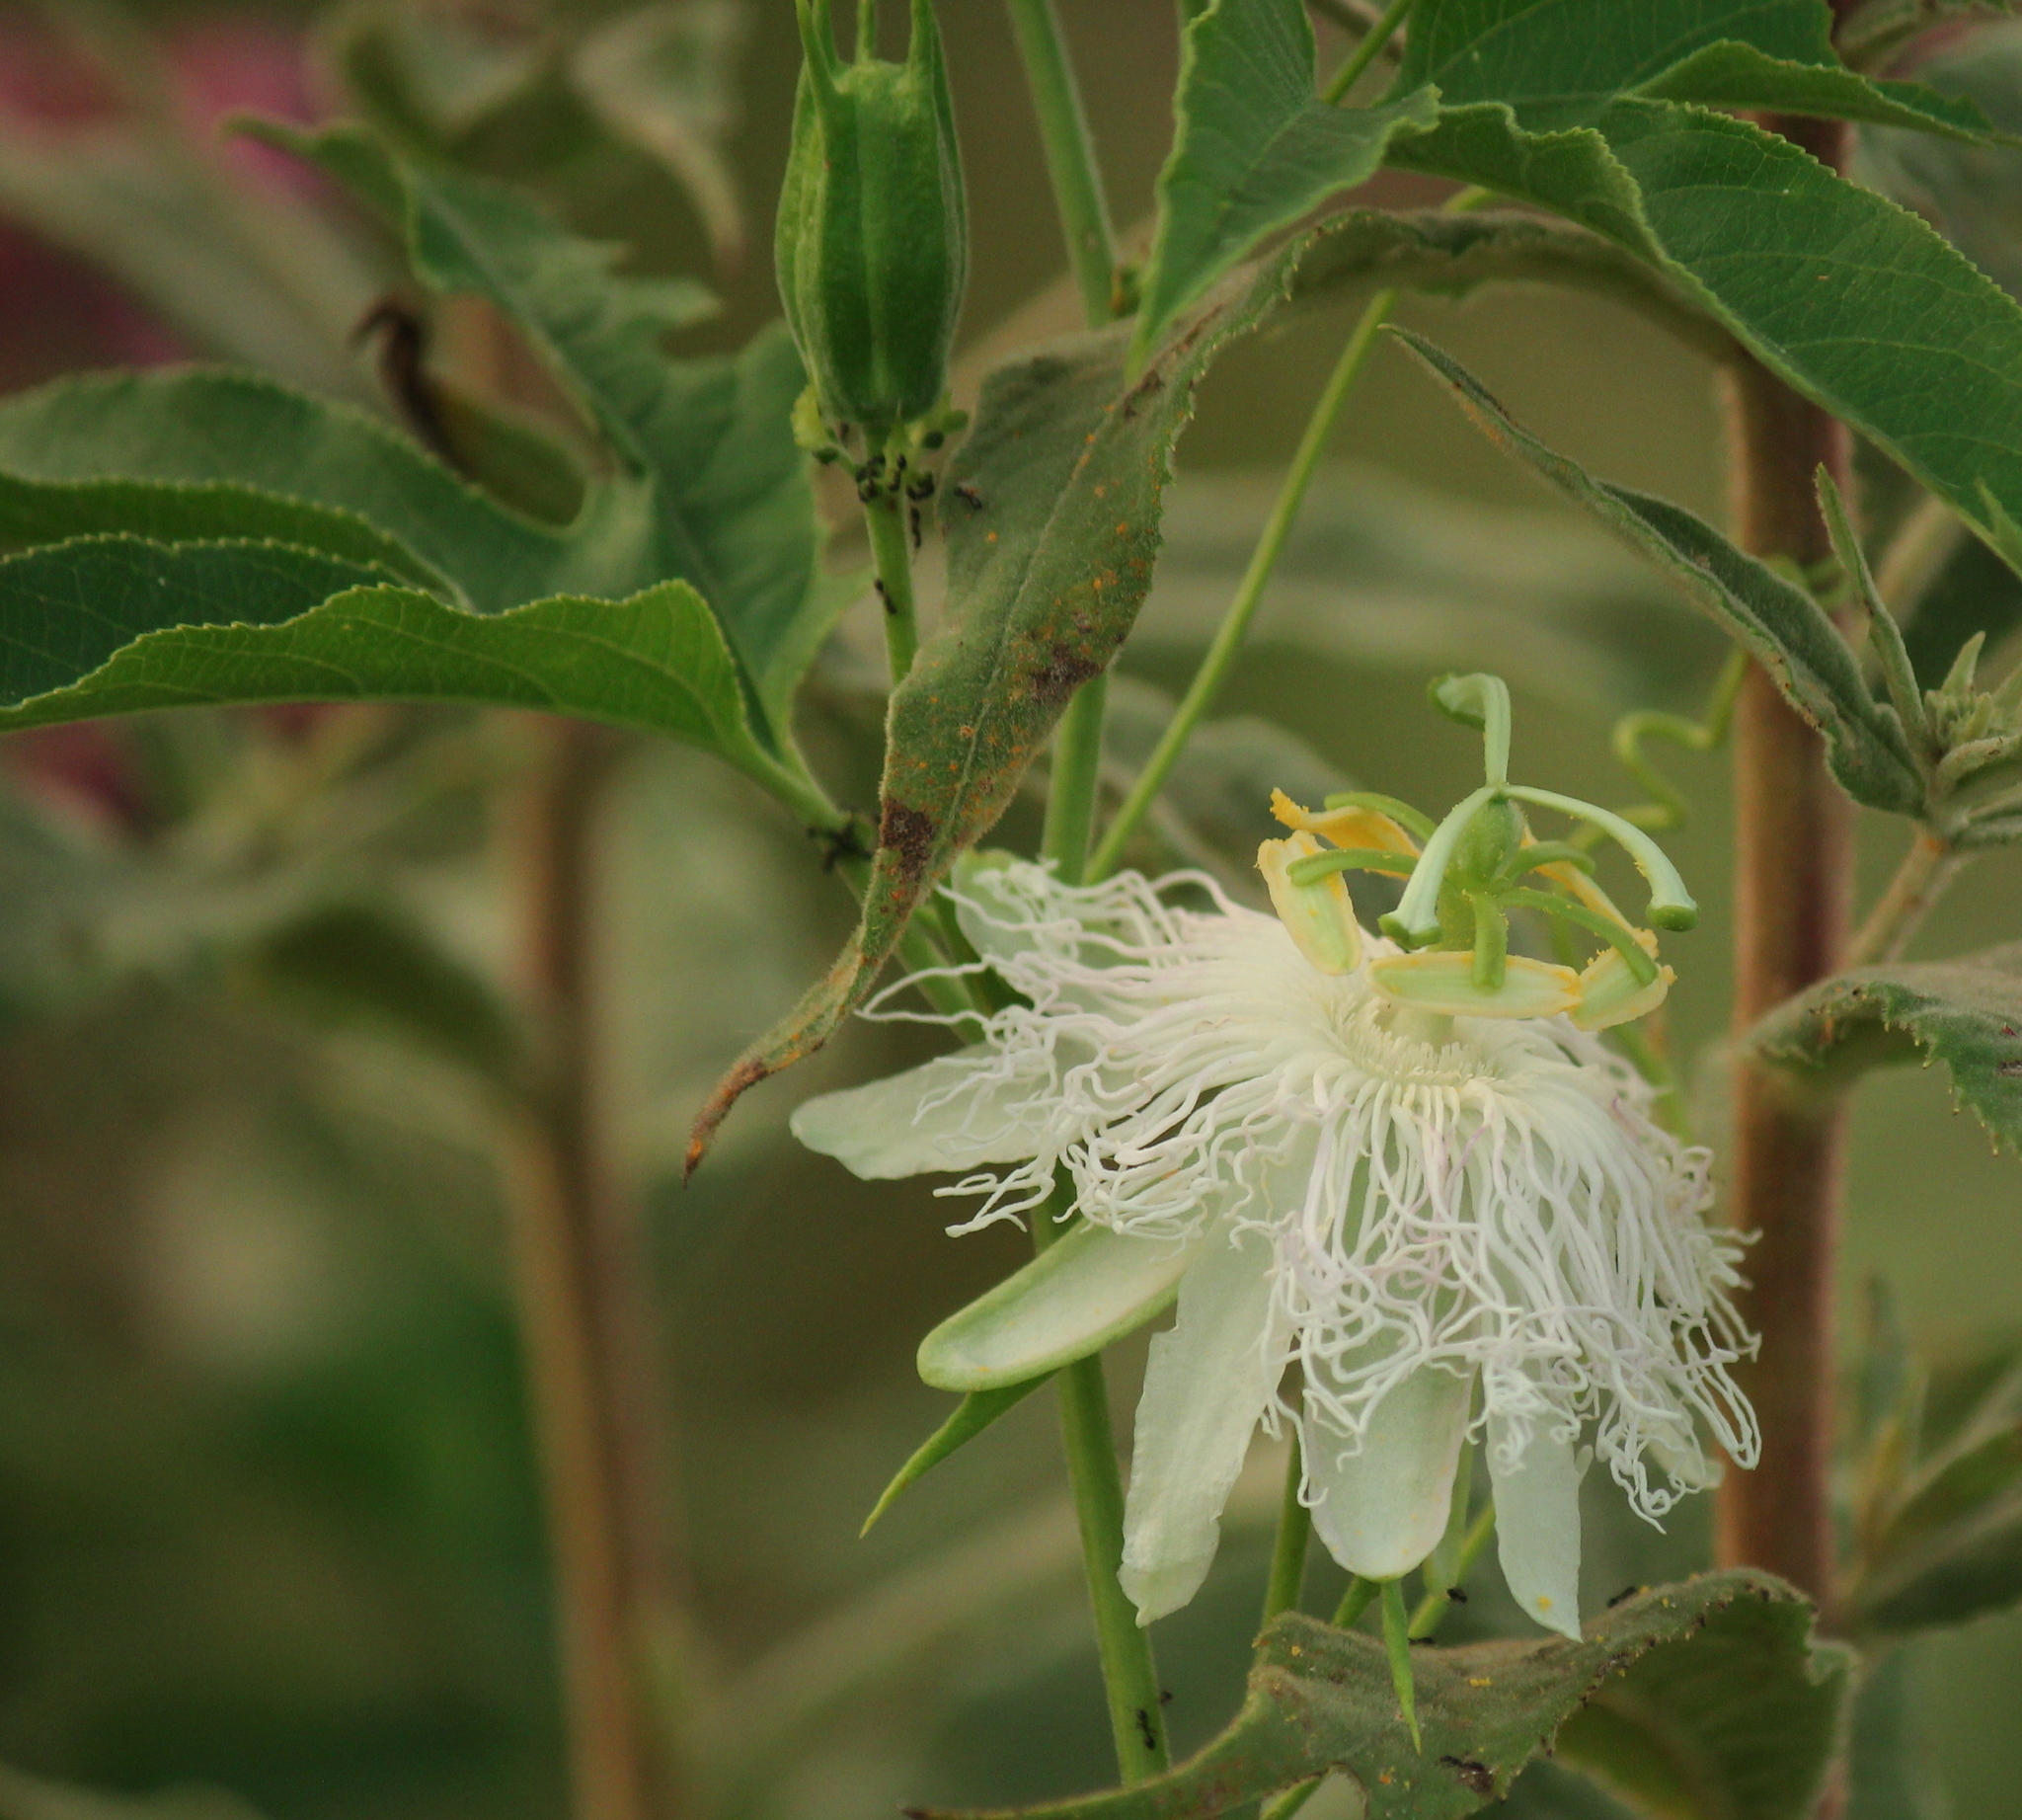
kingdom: Plantae
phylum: Tracheophyta
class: Magnoliopsida
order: Malpighiales
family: Passifloraceae
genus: Passiflora
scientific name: Passiflora incarnata
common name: Apricot-vine
